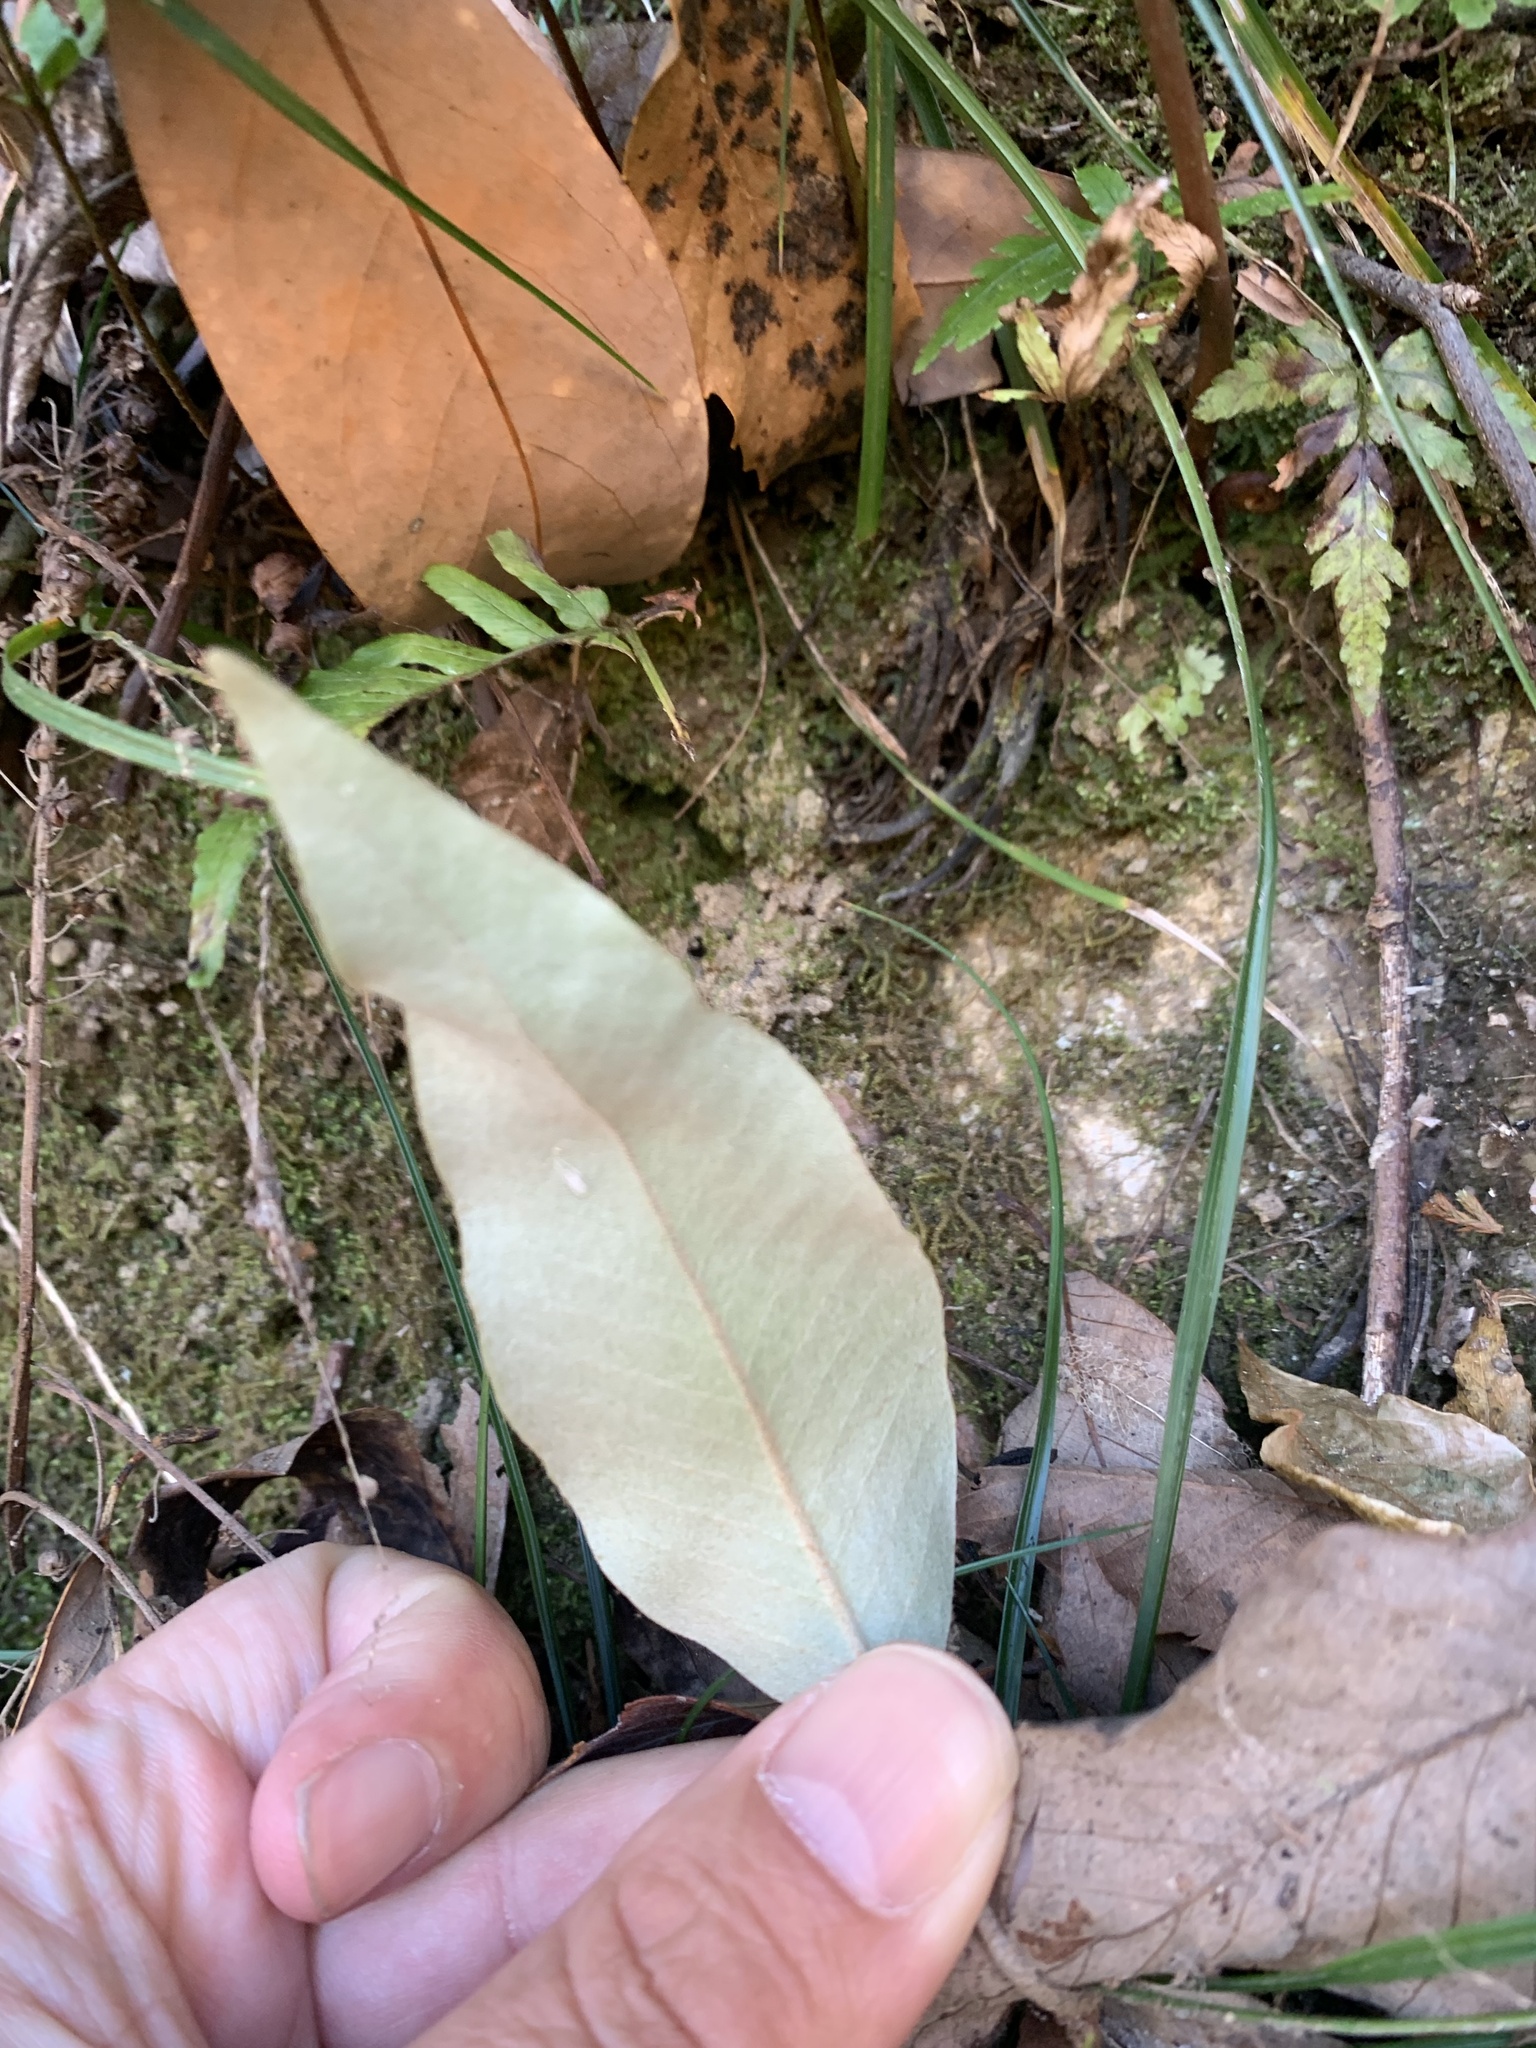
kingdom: Plantae
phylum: Tracheophyta
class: Polypodiopsida
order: Polypodiales
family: Polypodiaceae
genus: Pyrrosia
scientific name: Pyrrosia lingua
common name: Felt fern
